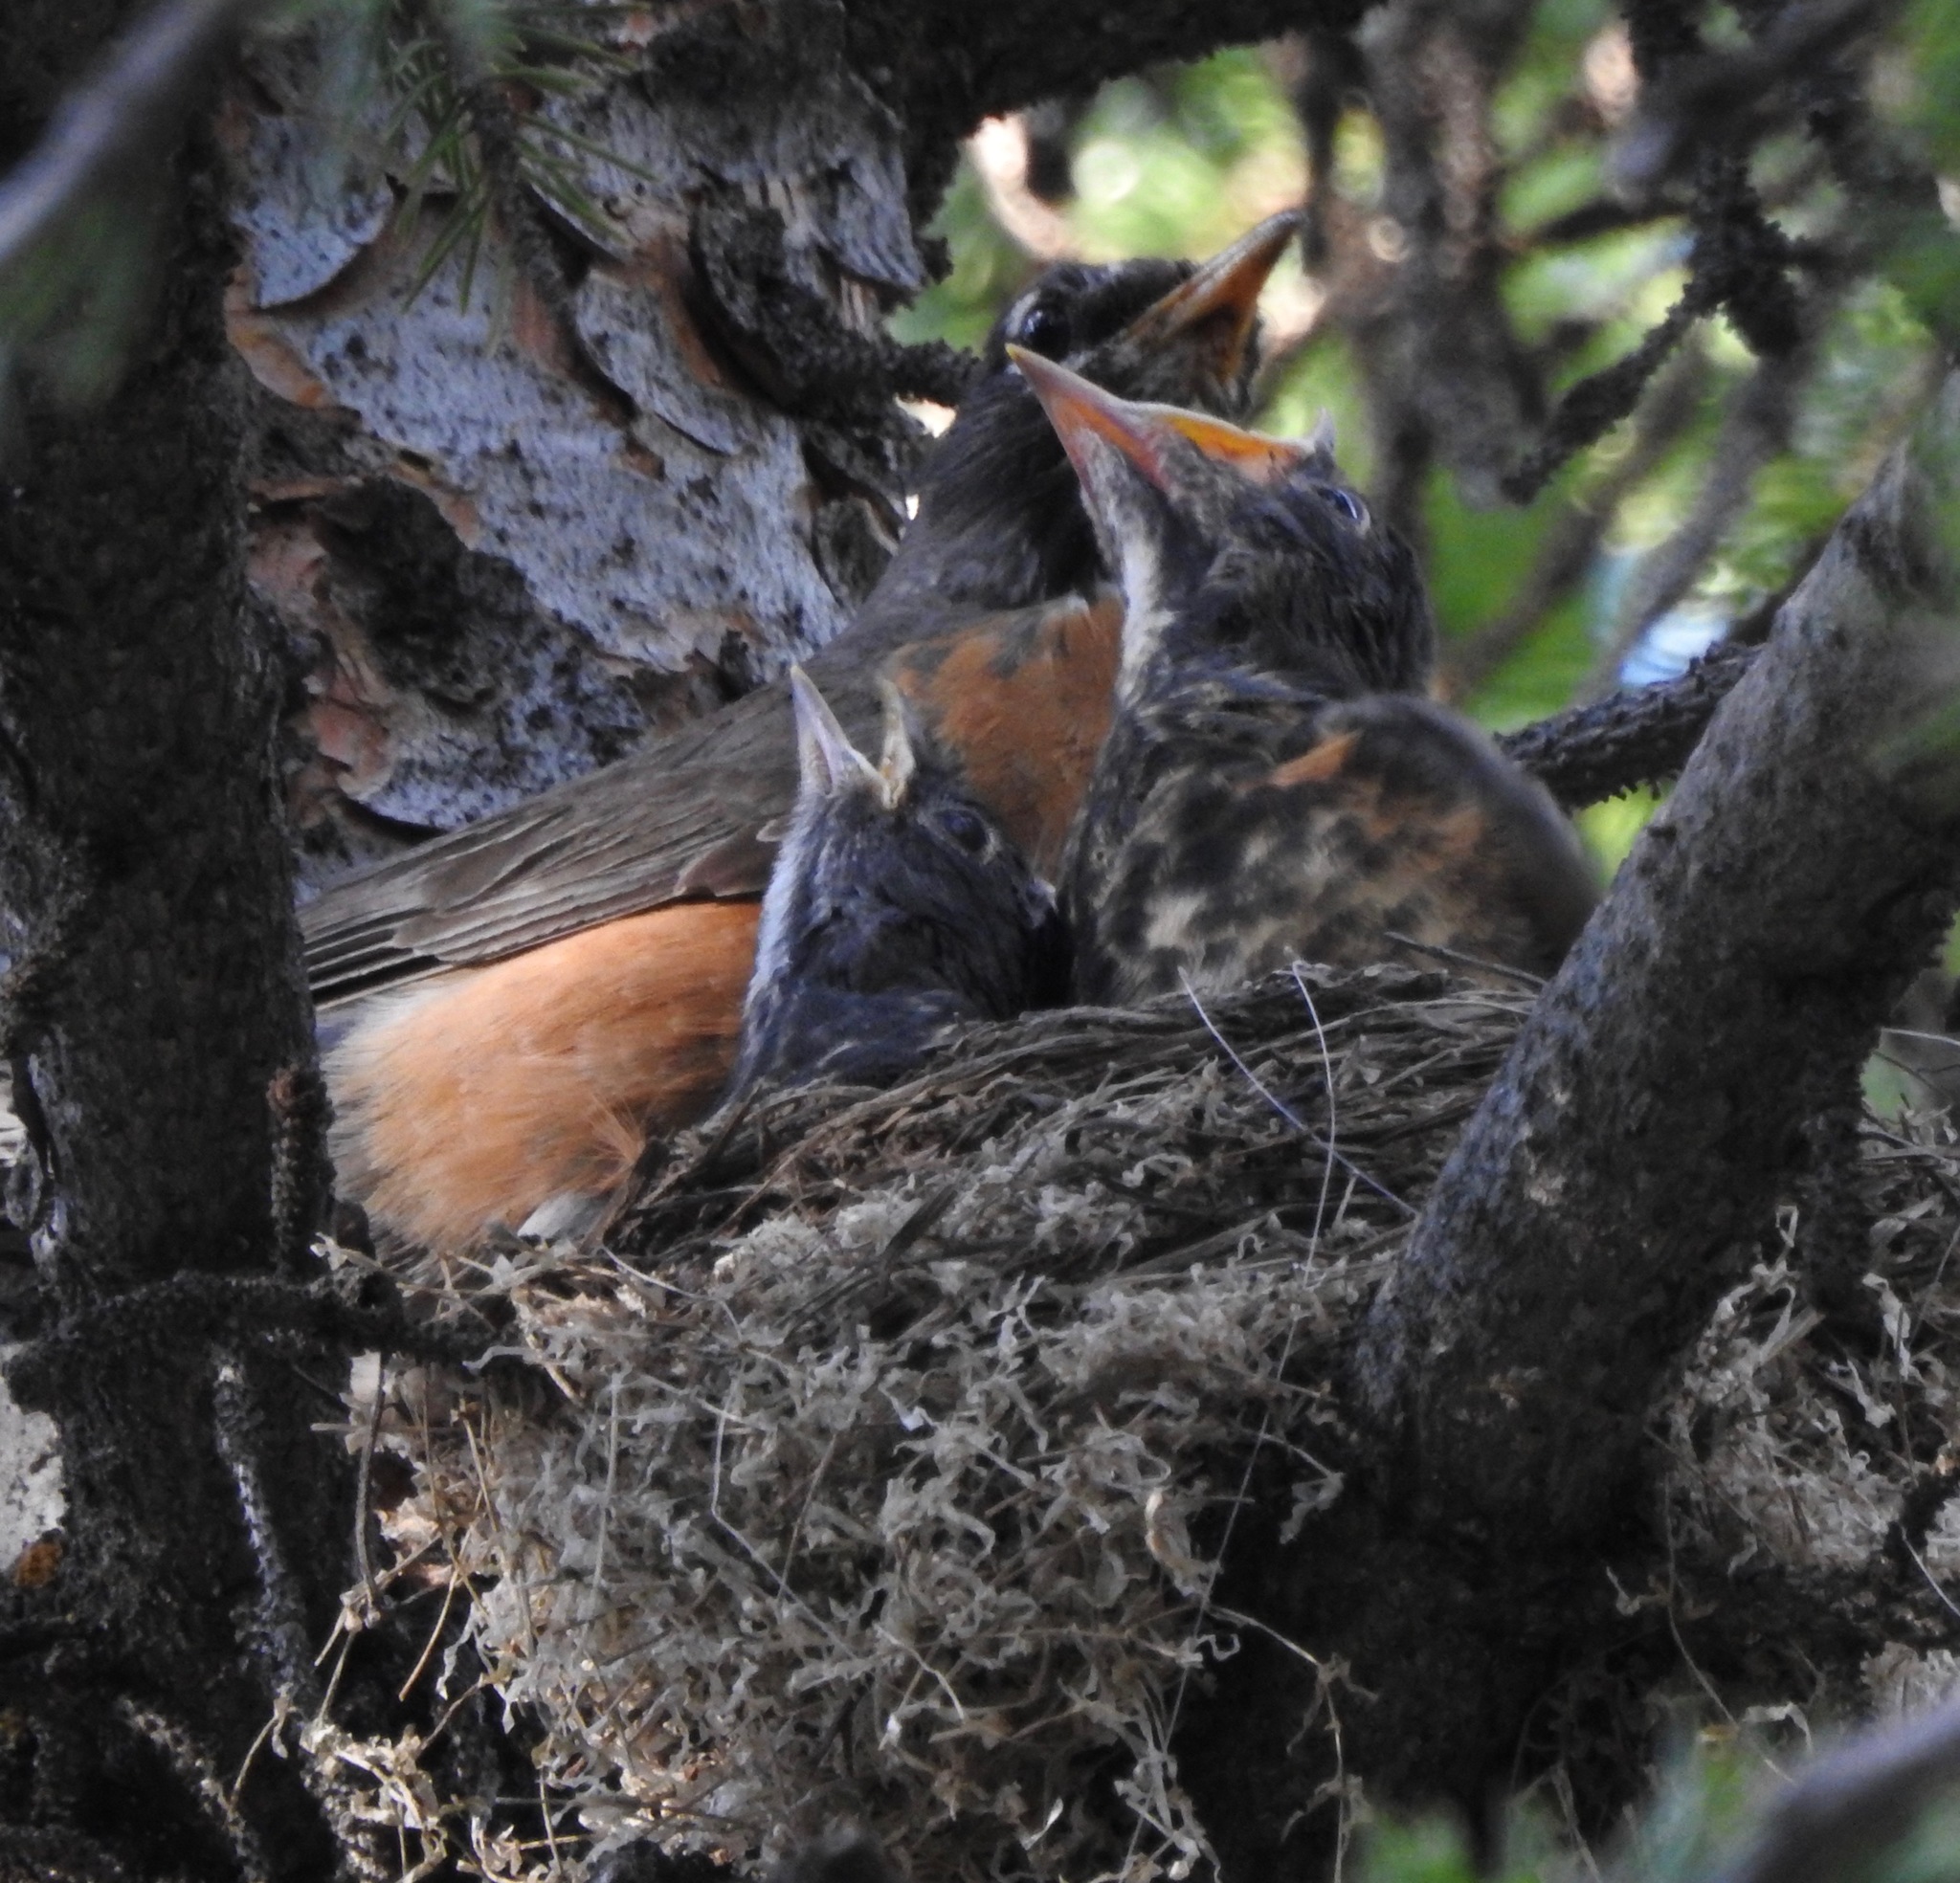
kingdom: Animalia
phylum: Chordata
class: Aves
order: Passeriformes
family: Turdidae
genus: Turdus
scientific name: Turdus migratorius
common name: American robin
